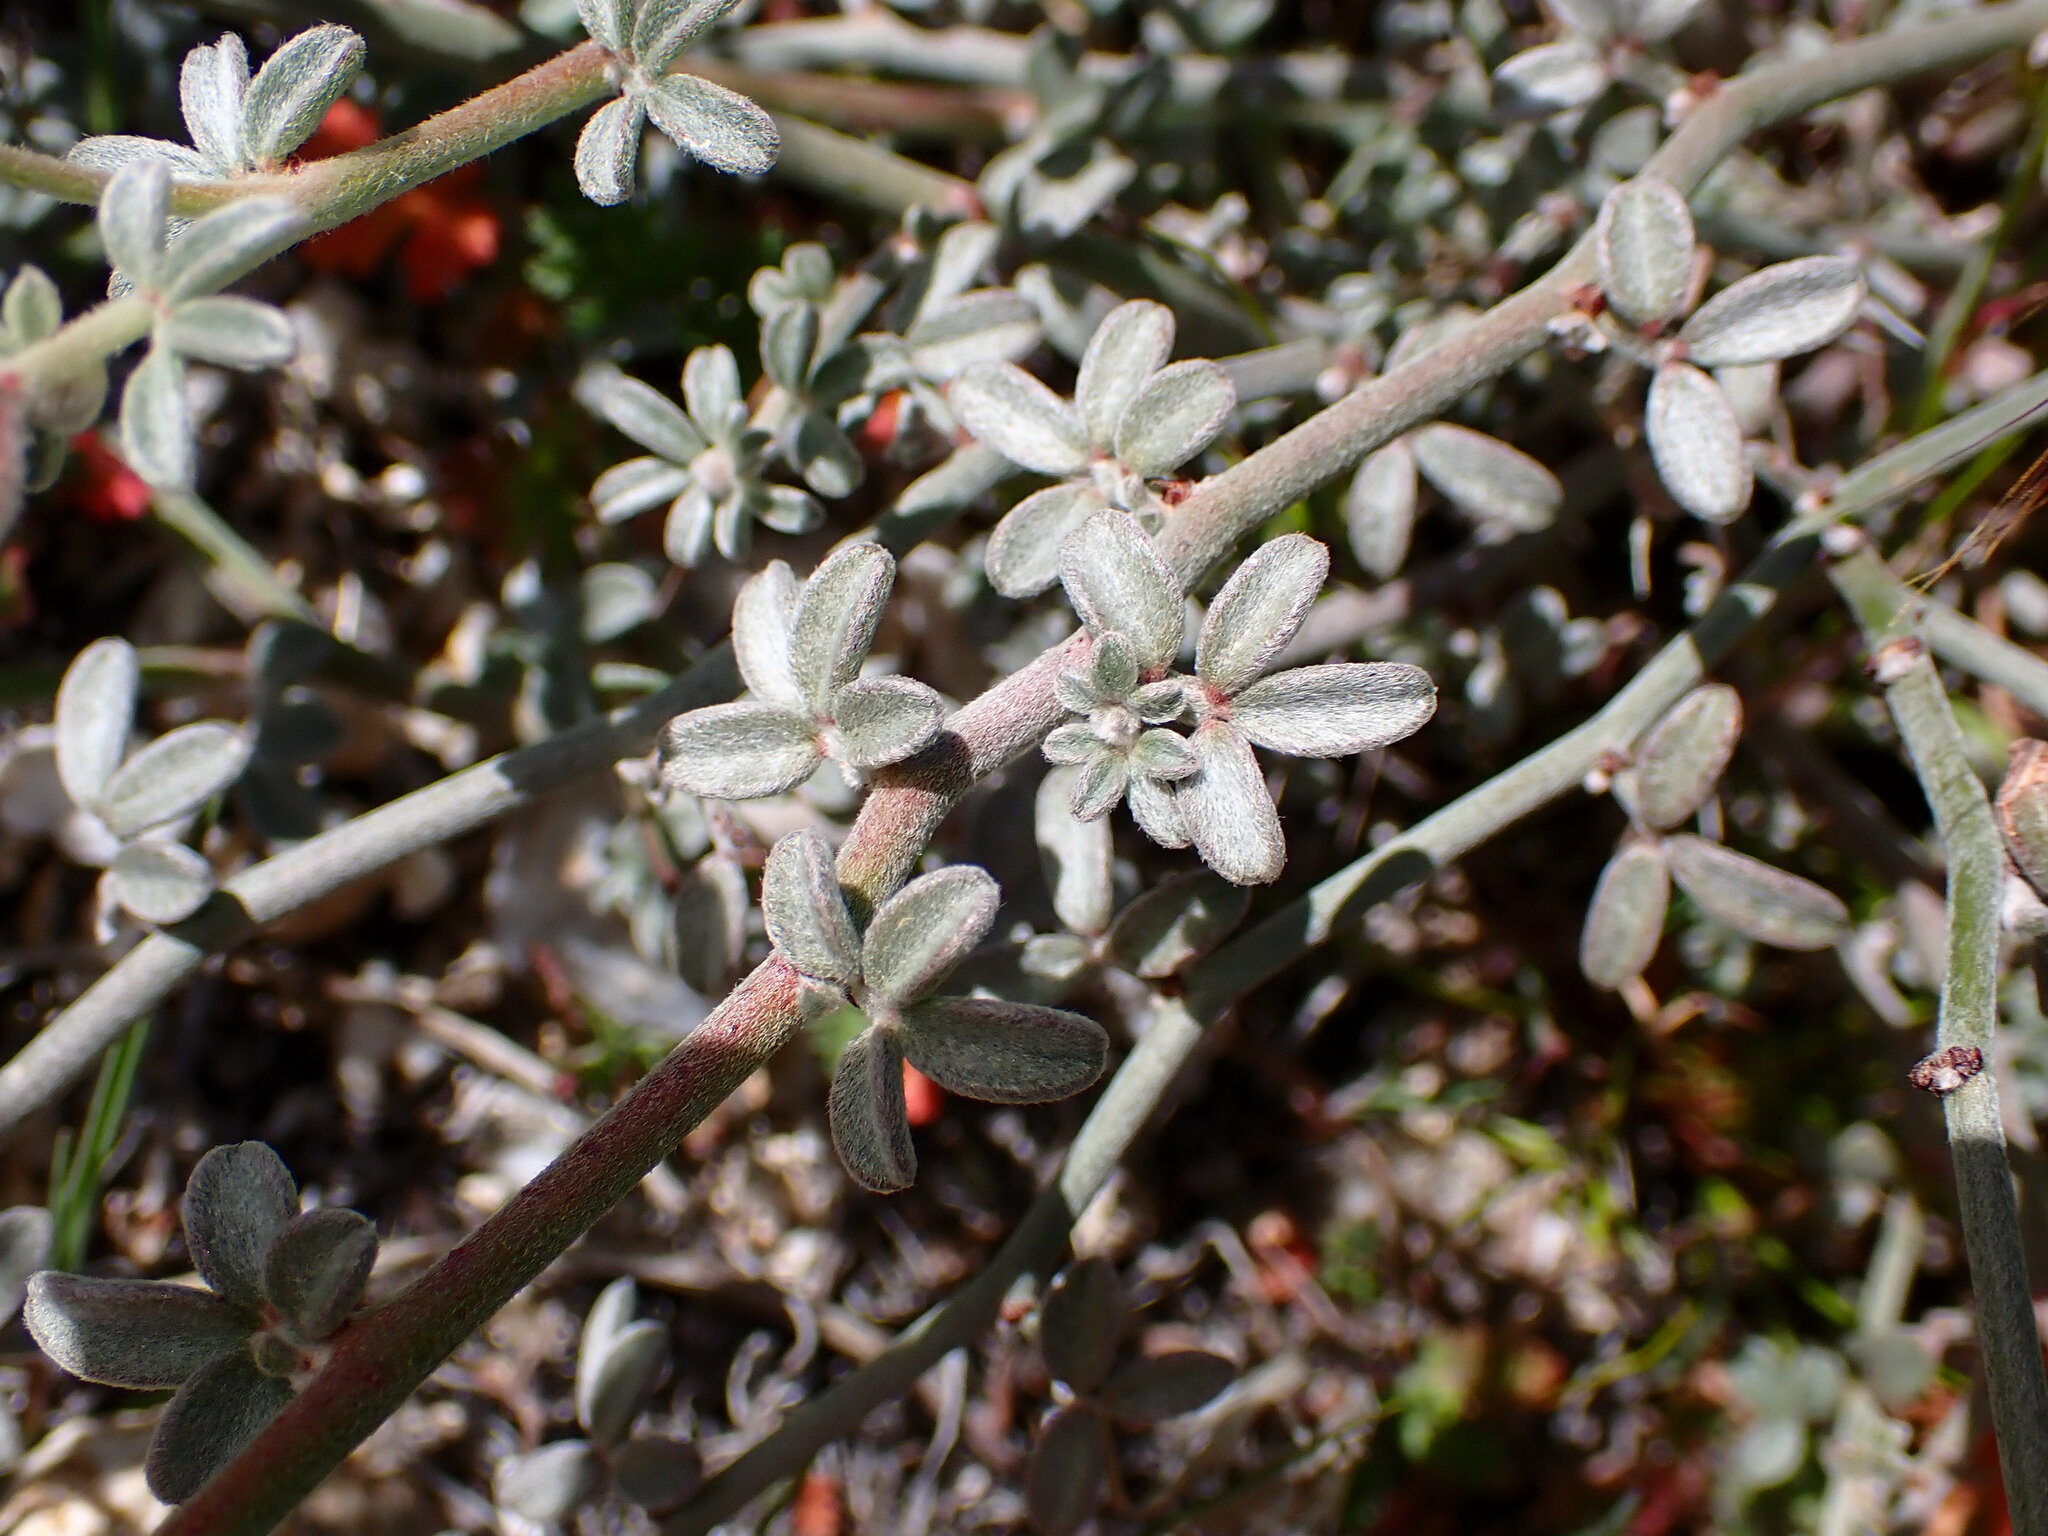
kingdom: Plantae
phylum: Tracheophyta
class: Magnoliopsida
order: Fabales
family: Fabaceae
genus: Acmispon
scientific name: Acmispon rigidus
